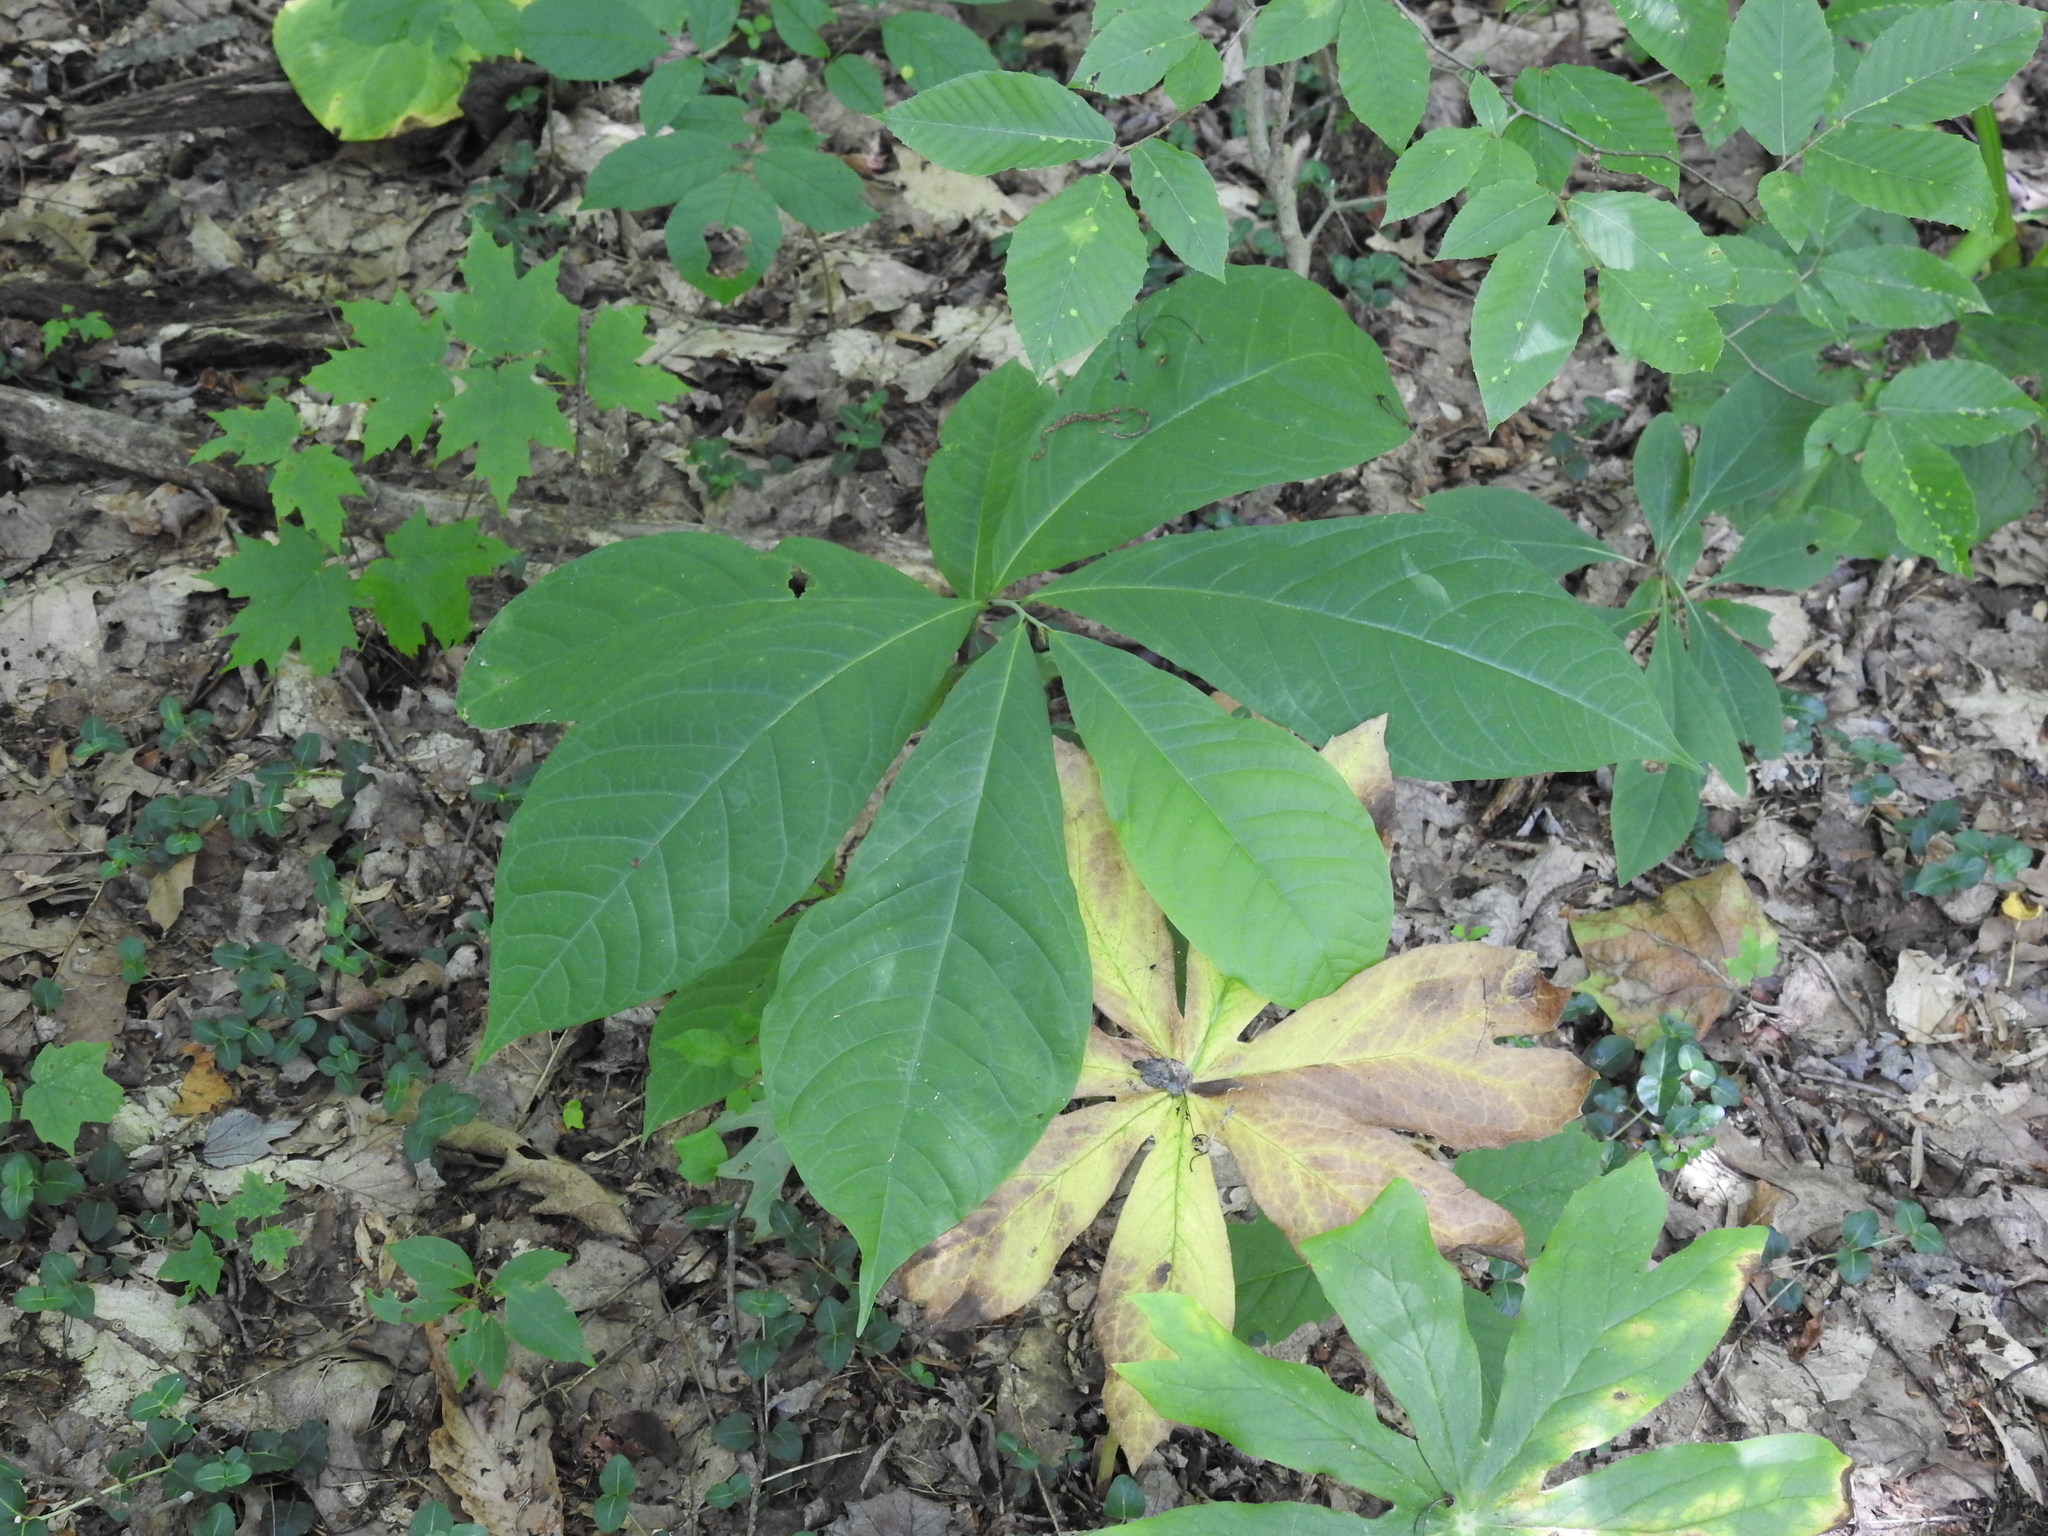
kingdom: Plantae
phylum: Tracheophyta
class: Magnoliopsida
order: Magnoliales
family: Annonaceae
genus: Asimina
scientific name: Asimina triloba
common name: Dog-banana
